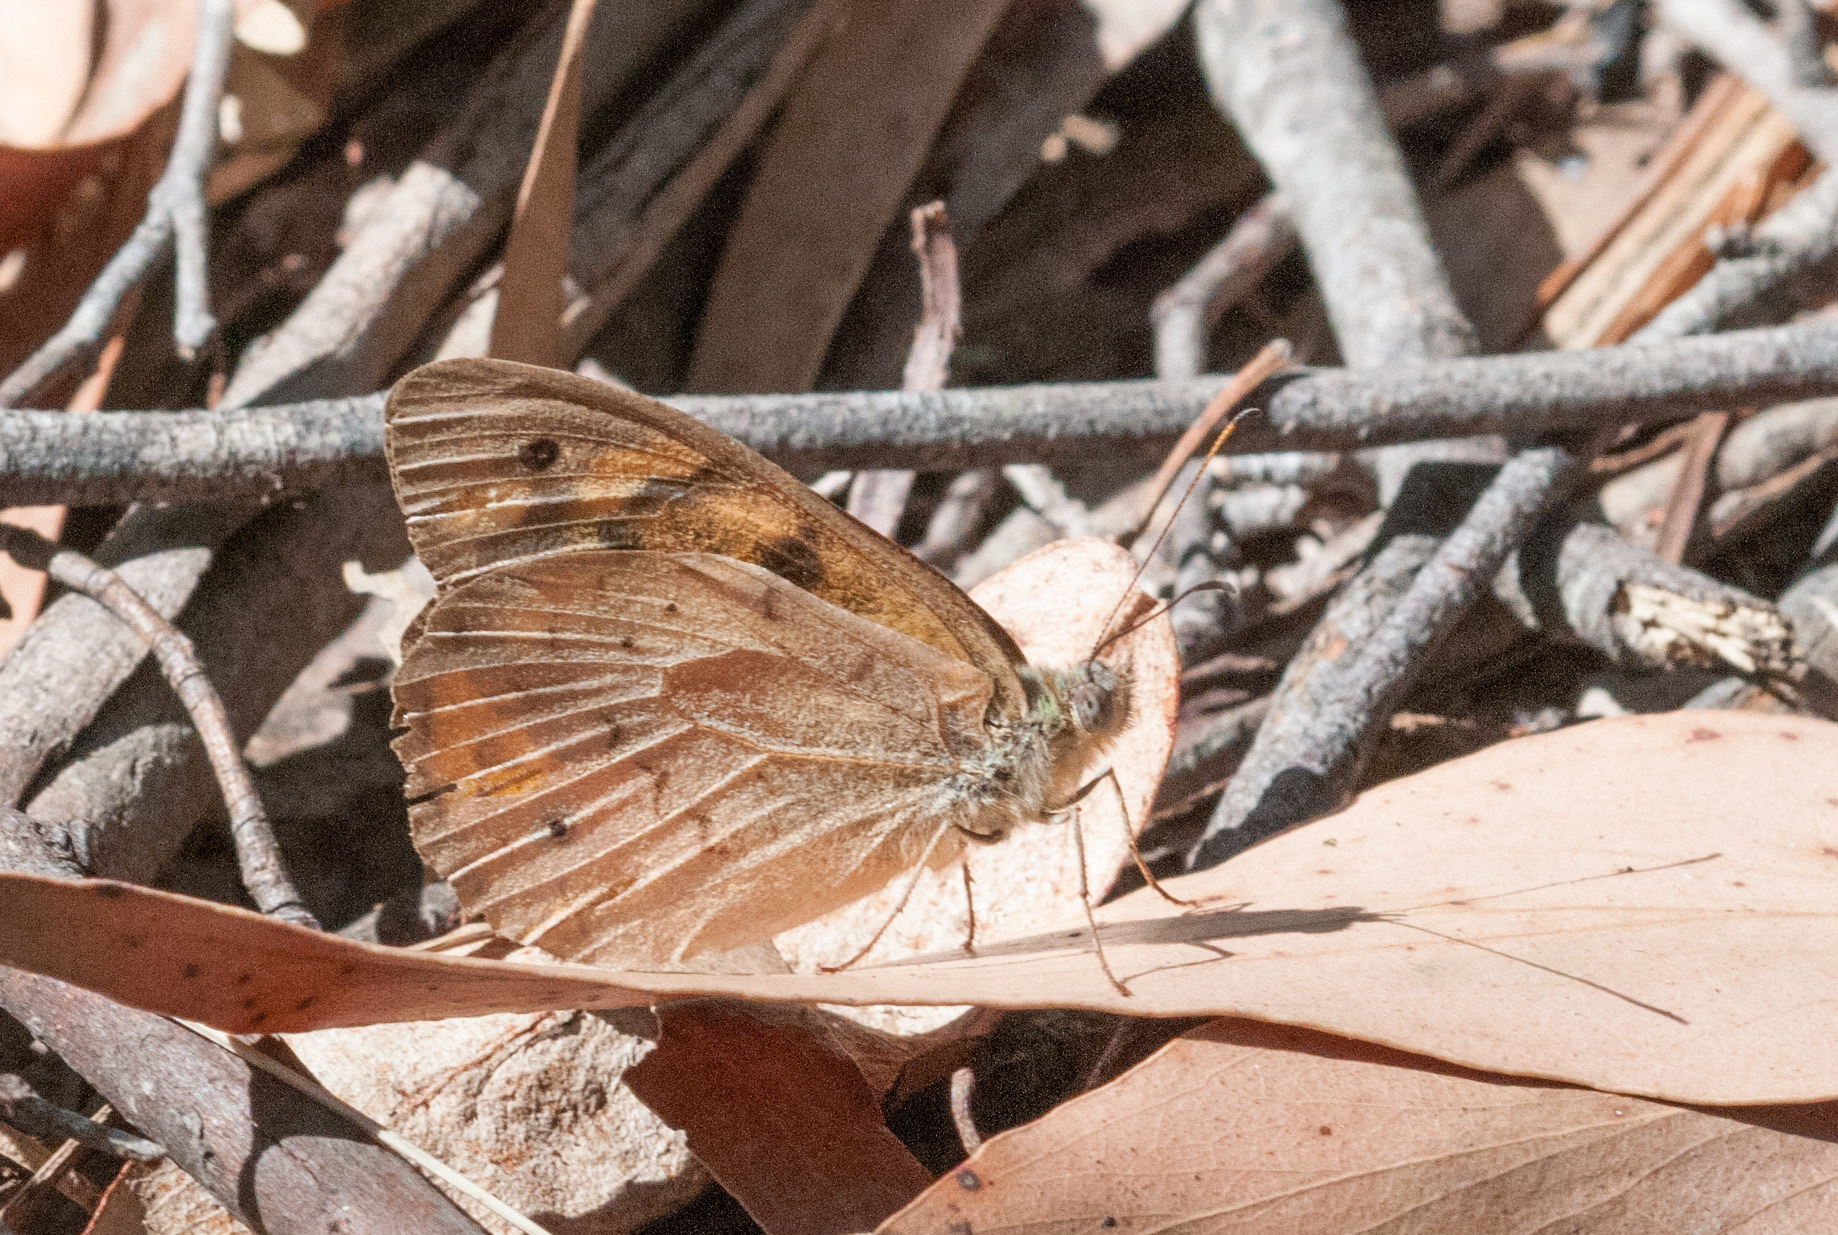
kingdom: Animalia
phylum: Arthropoda
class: Insecta
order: Lepidoptera
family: Nymphalidae
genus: Heteronympha
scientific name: Heteronympha merope
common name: Common brown
